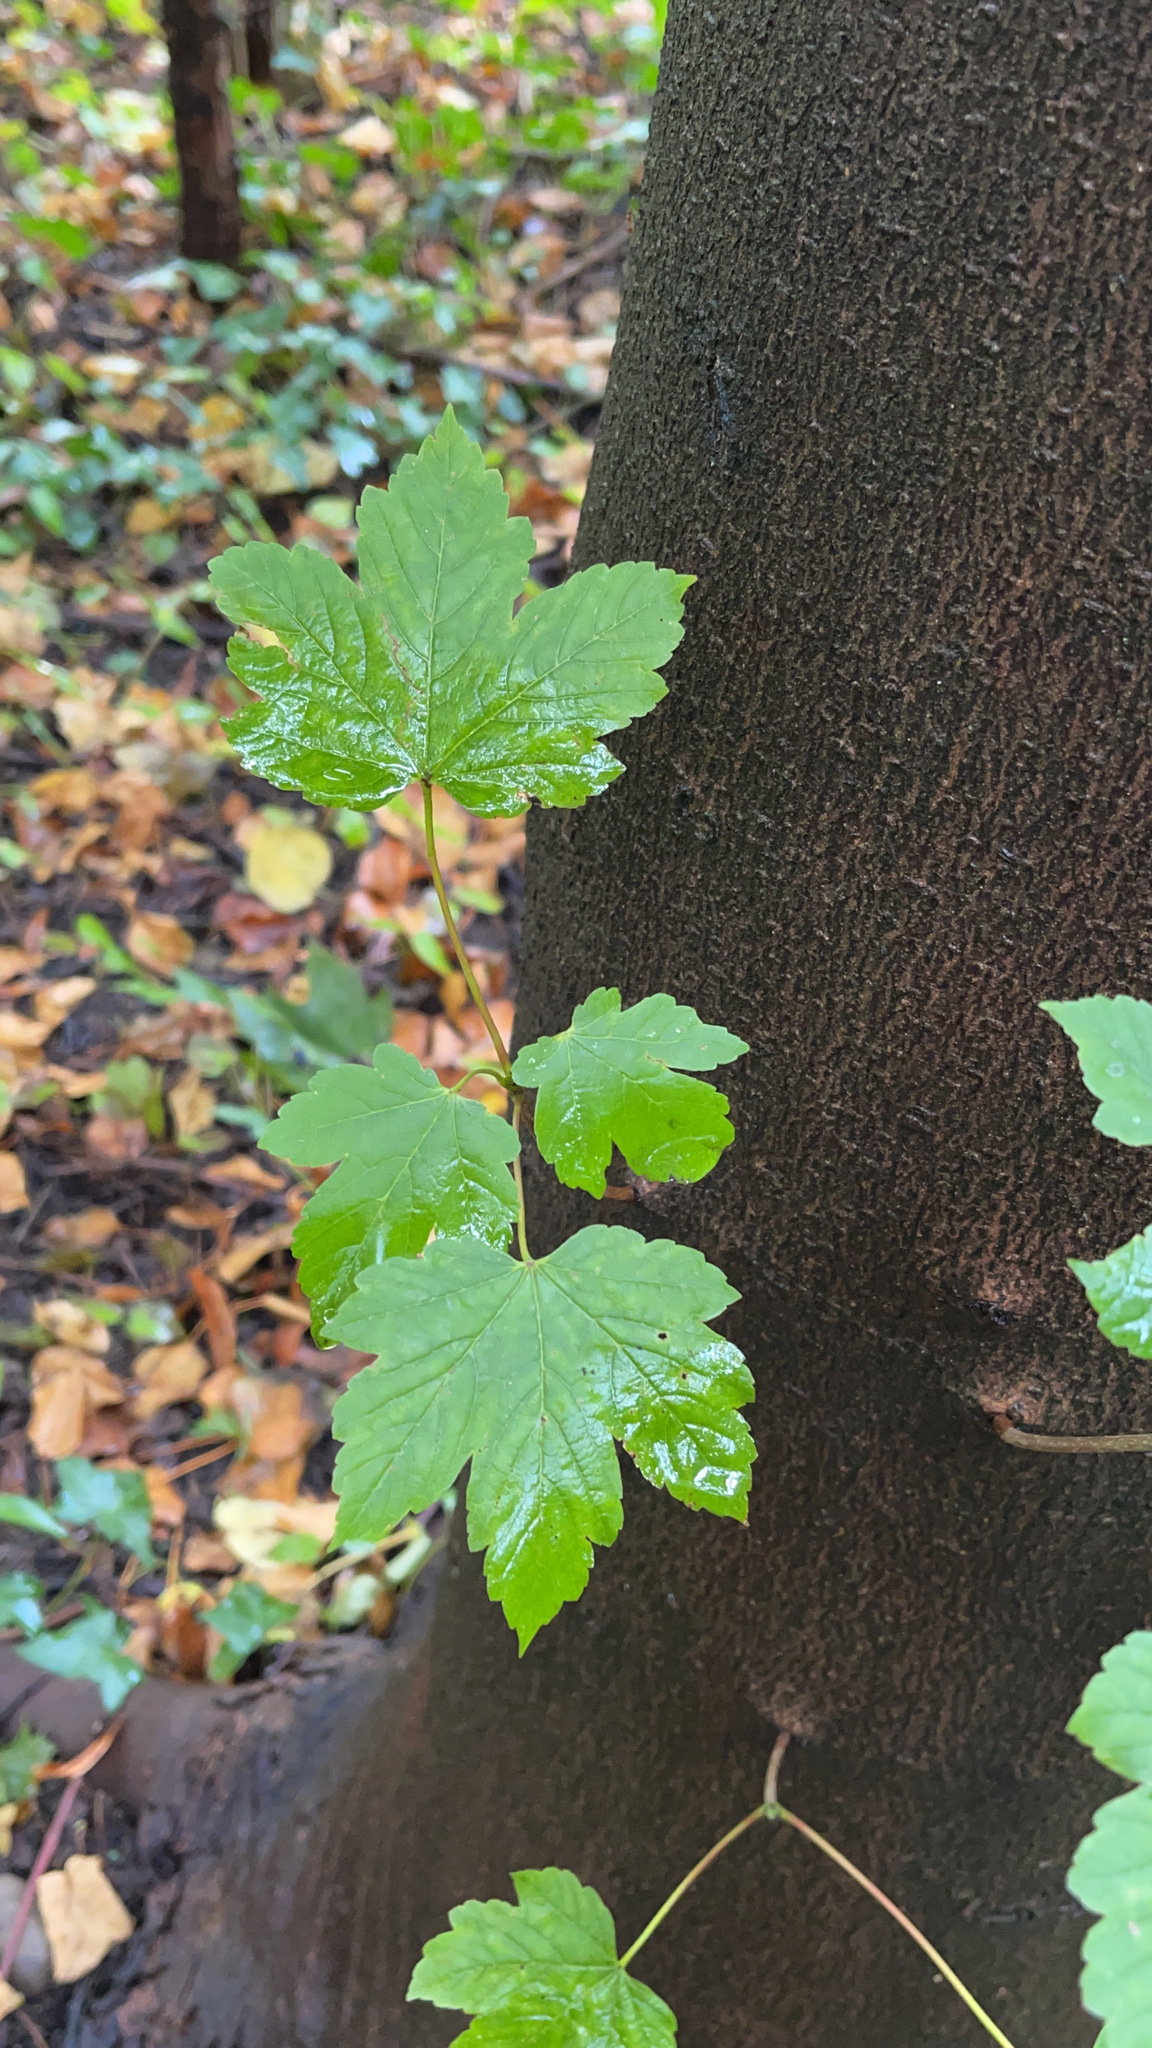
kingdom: Plantae
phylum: Tracheophyta
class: Magnoliopsida
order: Sapindales
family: Sapindaceae
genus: Acer
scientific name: Acer pseudoplatanus
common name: Sycamore
